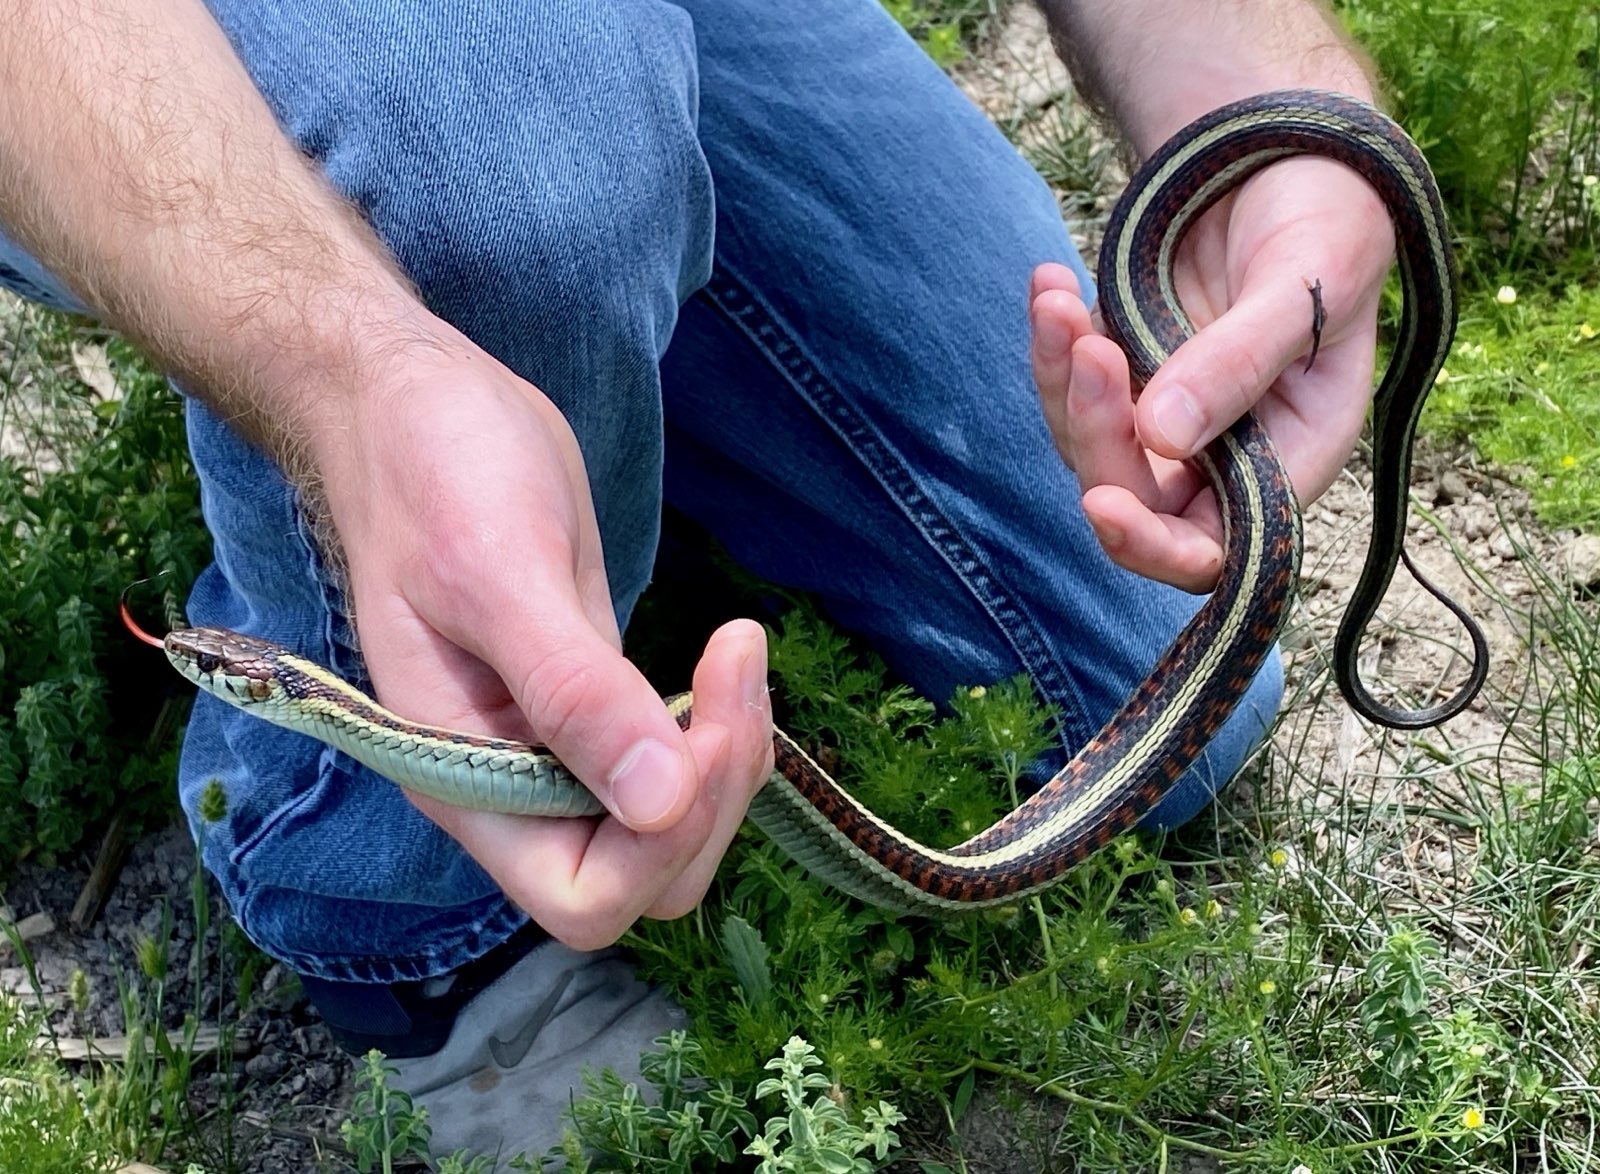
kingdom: Animalia
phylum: Chordata
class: Squamata
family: Colubridae
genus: Thamnophis
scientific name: Thamnophis sirtalis
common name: Common garter snake
